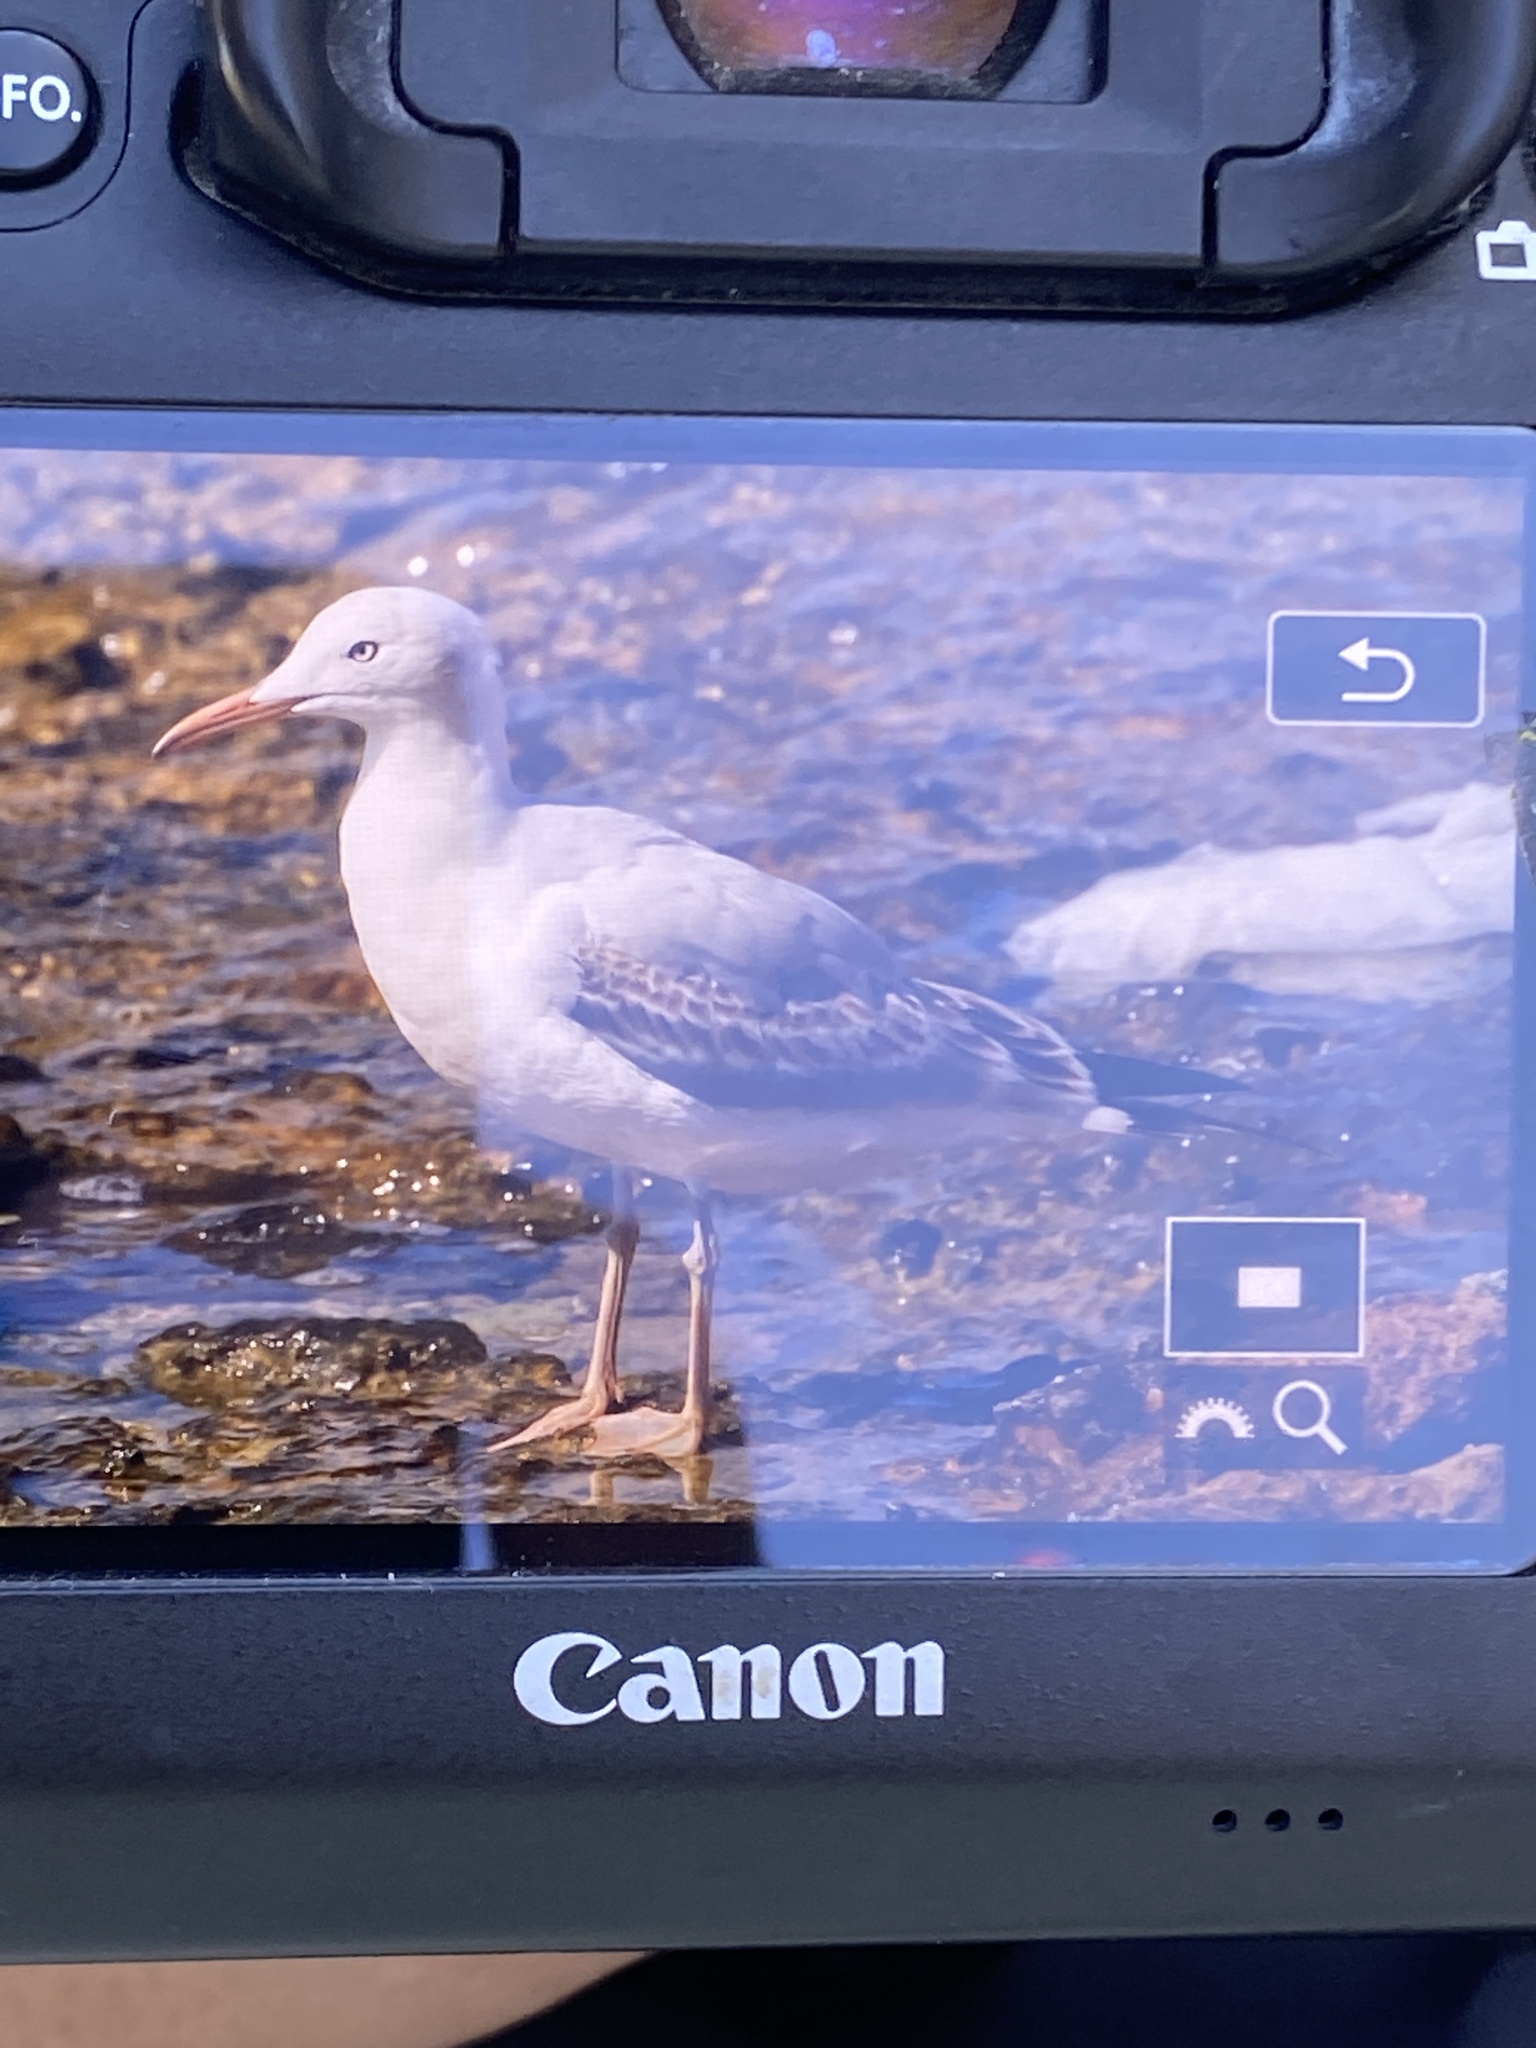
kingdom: Animalia
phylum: Chordata
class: Aves
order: Charadriiformes
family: Laridae
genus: Chroicocephalus
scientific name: Chroicocephalus genei
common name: Slender-billed gull
